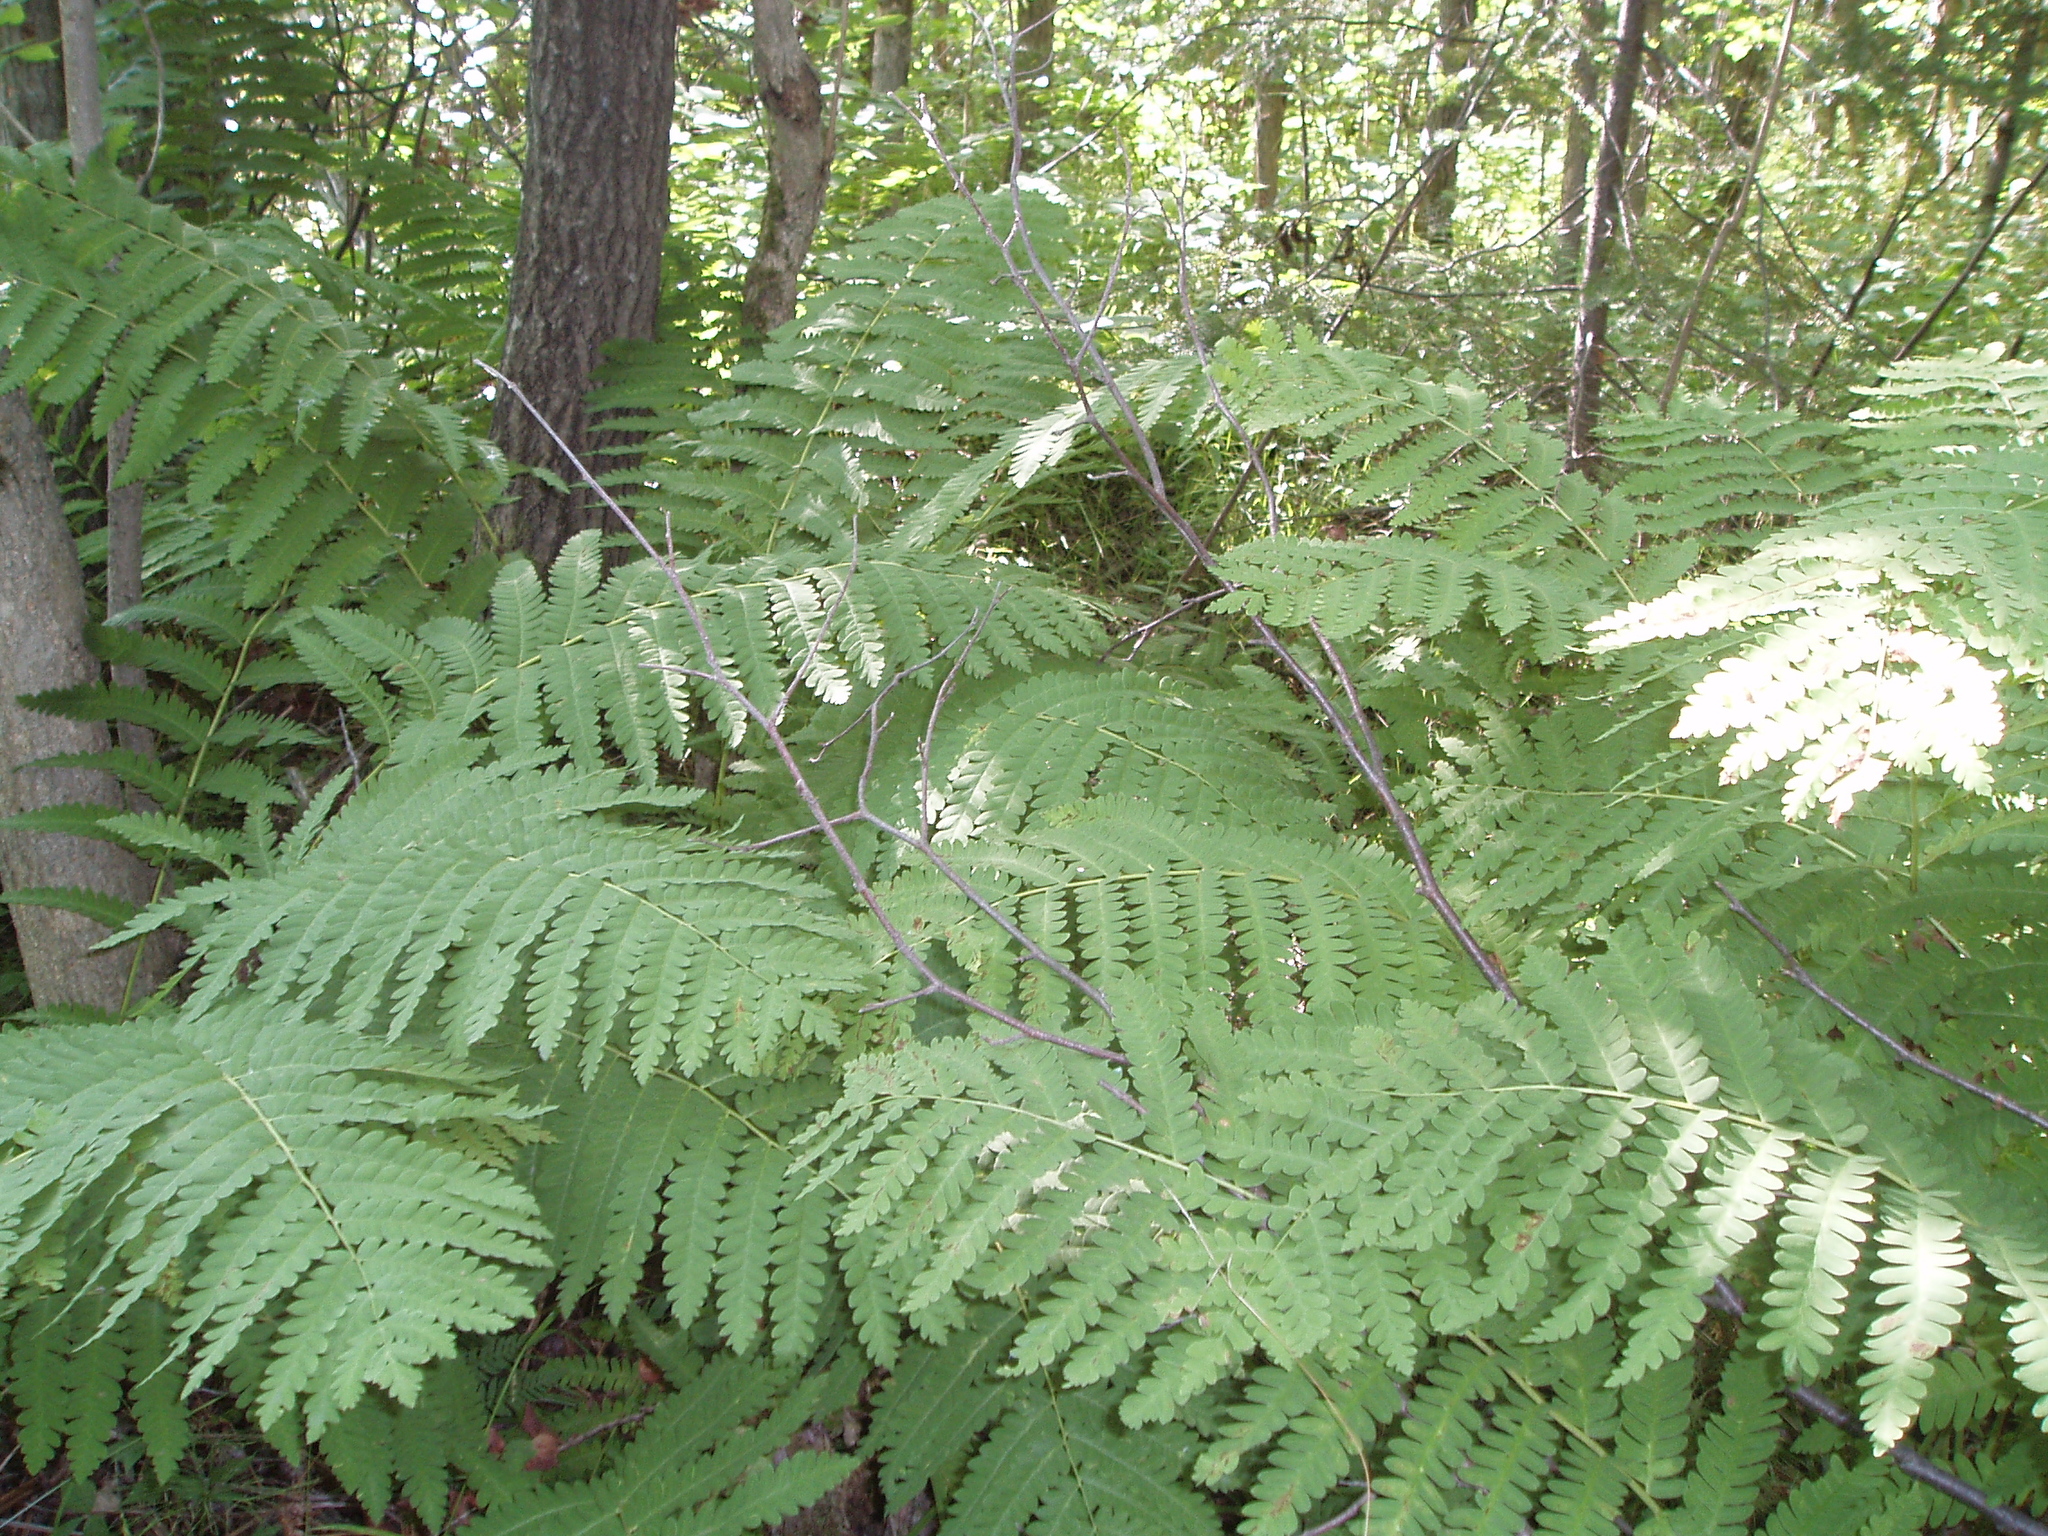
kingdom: Plantae
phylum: Tracheophyta
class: Polypodiopsida
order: Osmundales
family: Osmundaceae
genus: Claytosmunda
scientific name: Claytosmunda claytoniana
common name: Clayton's fern
